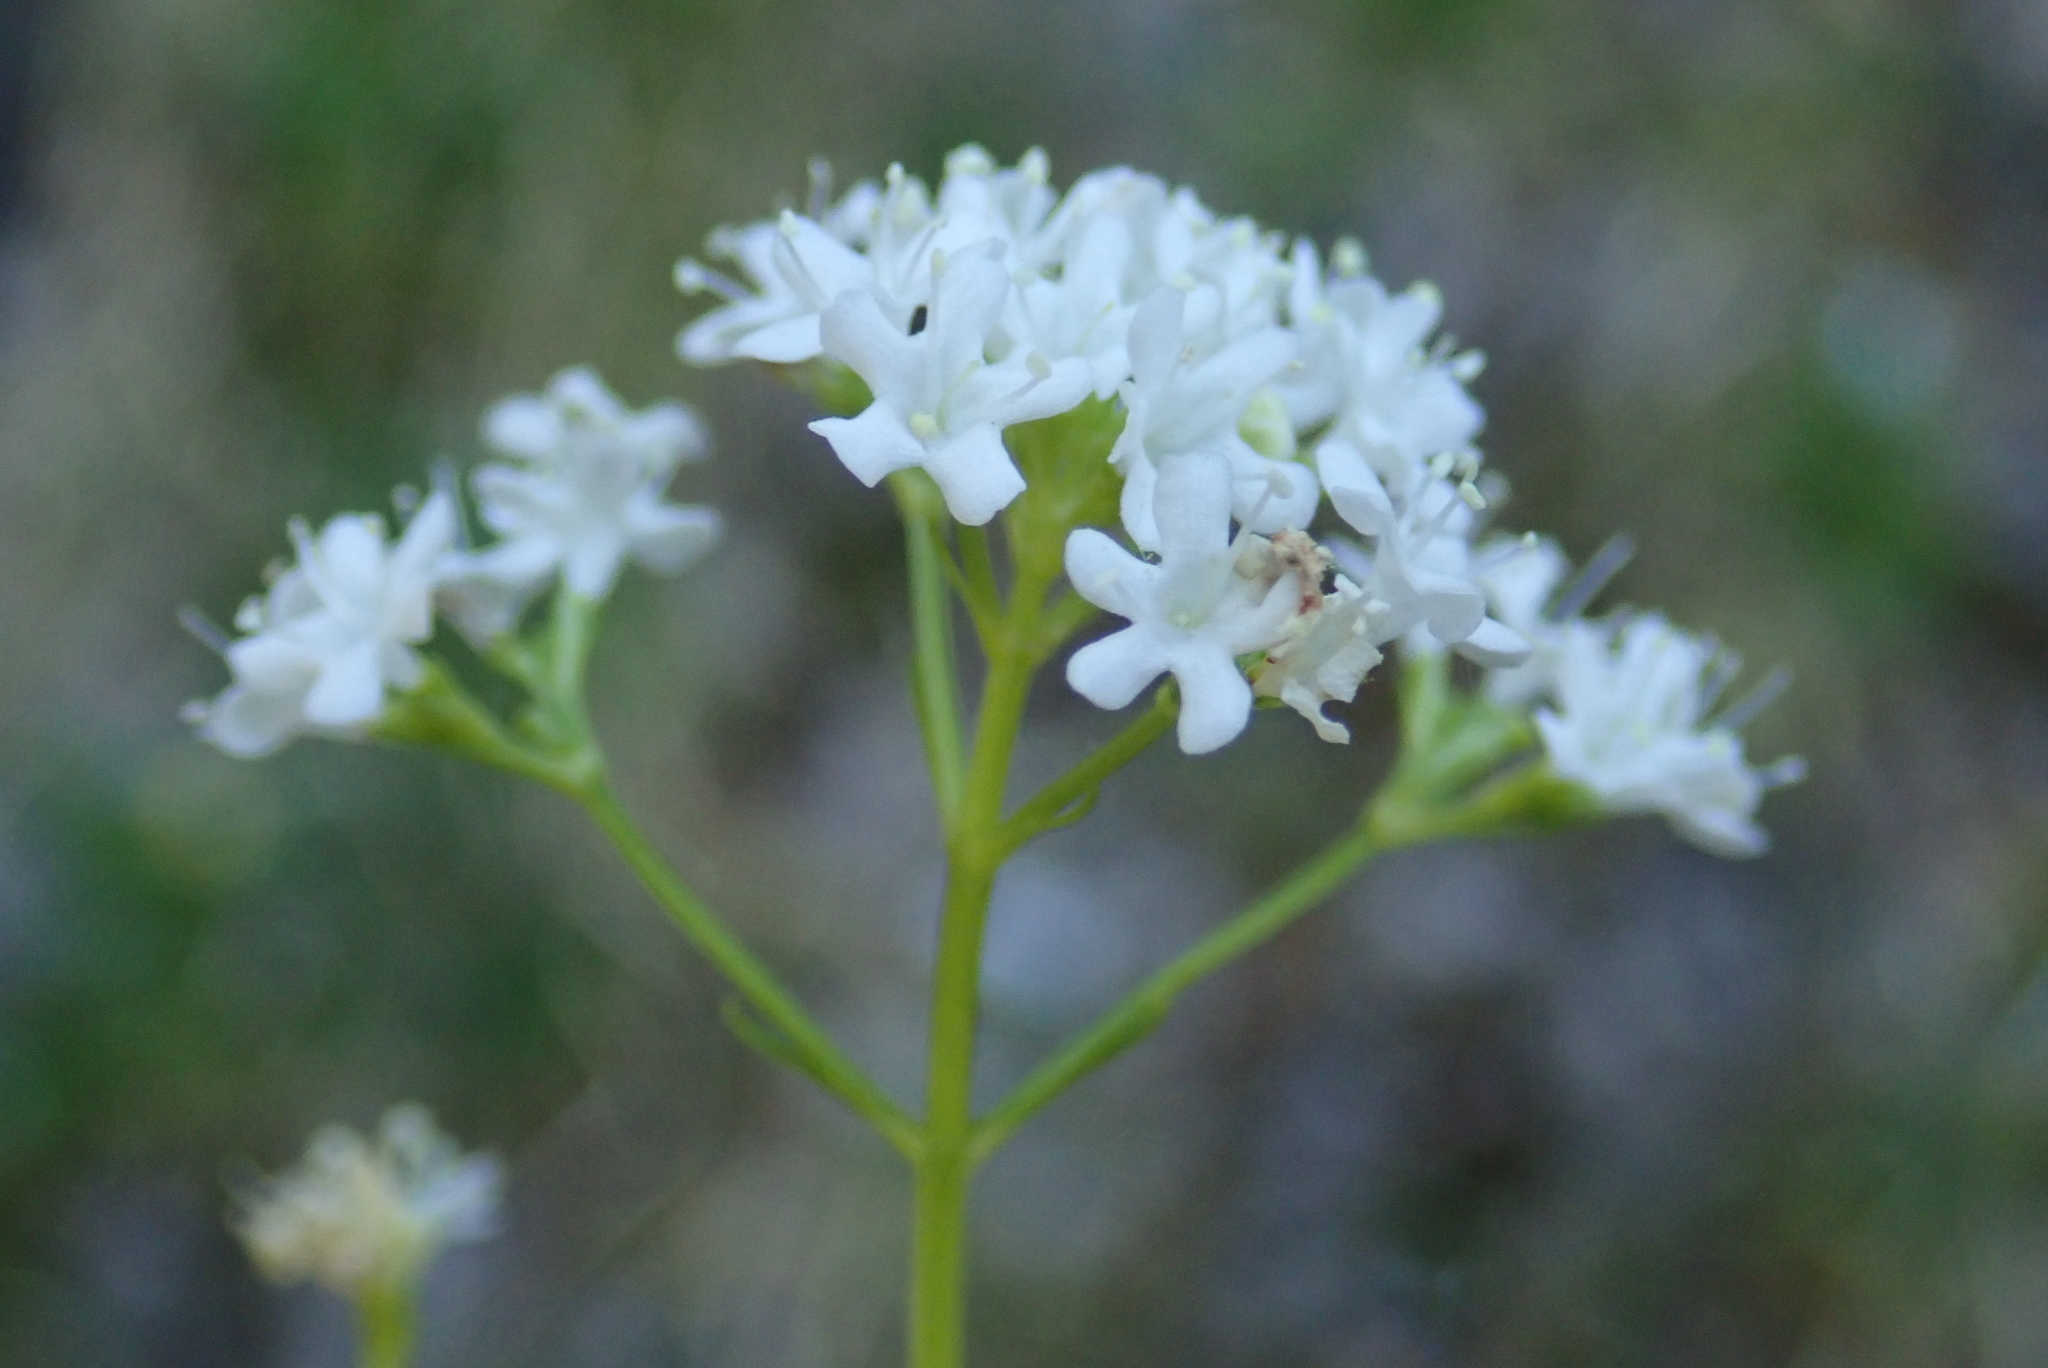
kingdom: Plantae
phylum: Tracheophyta
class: Magnoliopsida
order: Dipsacales
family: Caprifoliaceae
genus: Valeriana
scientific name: Valeriana saxatilis
